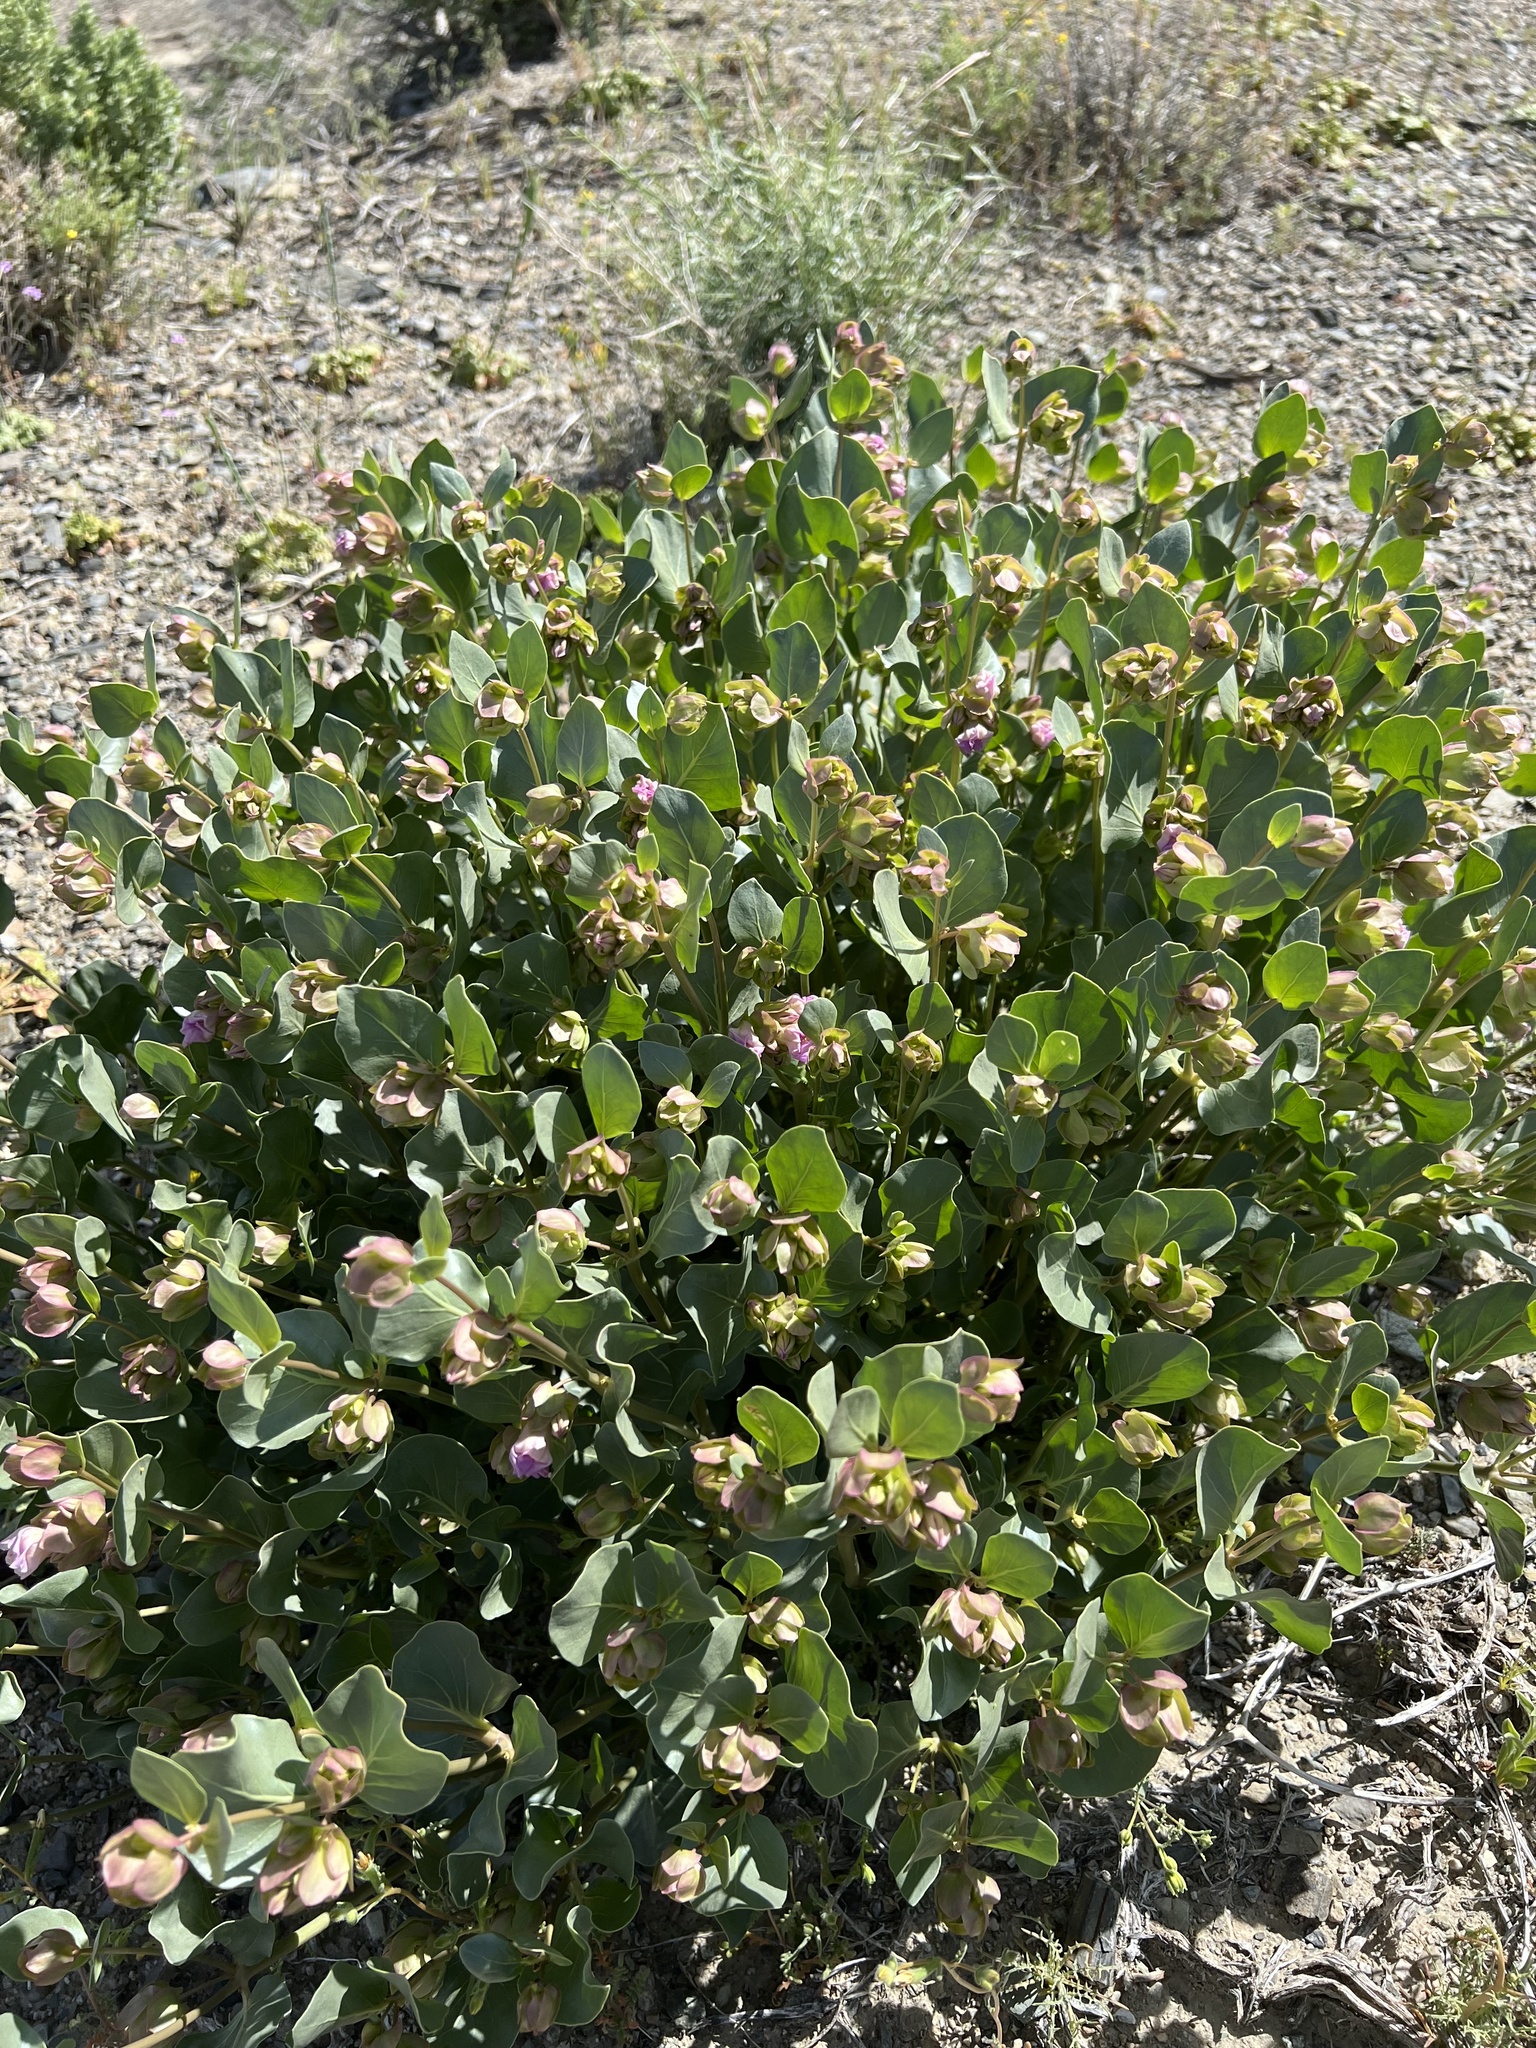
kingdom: Plantae
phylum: Tracheophyta
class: Magnoliopsida
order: Caryophyllales
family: Nyctaginaceae
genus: Mirabilis
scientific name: Mirabilis alipes
